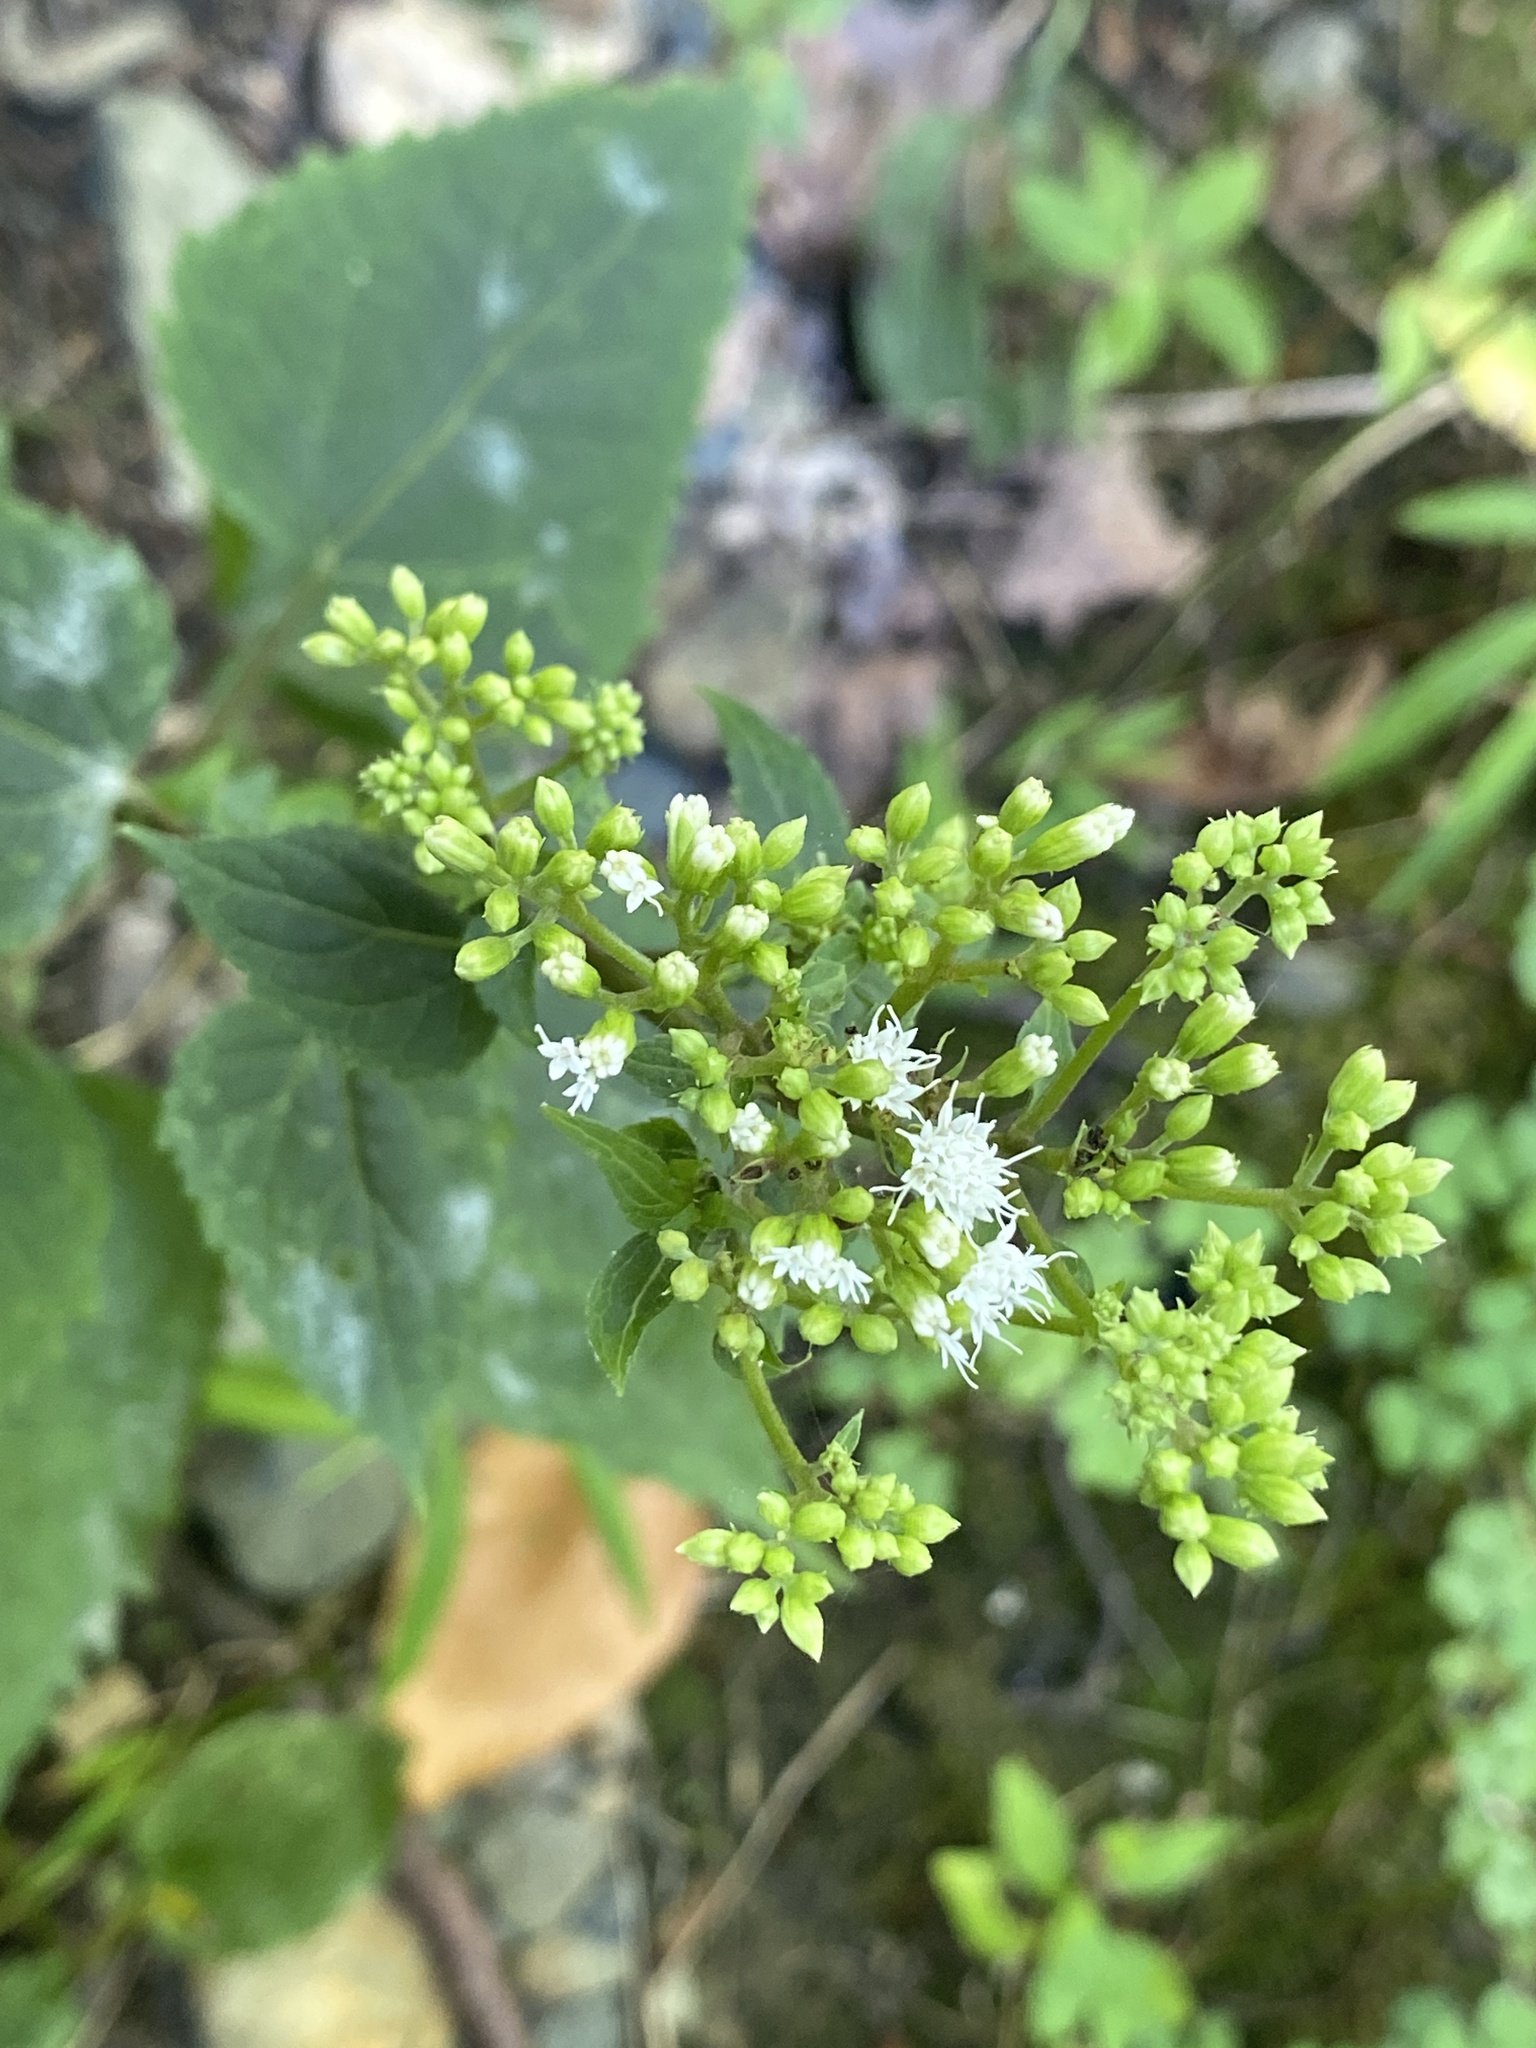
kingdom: Plantae
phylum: Tracheophyta
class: Magnoliopsida
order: Asterales
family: Asteraceae
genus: Ageratina
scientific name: Ageratina altissima
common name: White snakeroot
